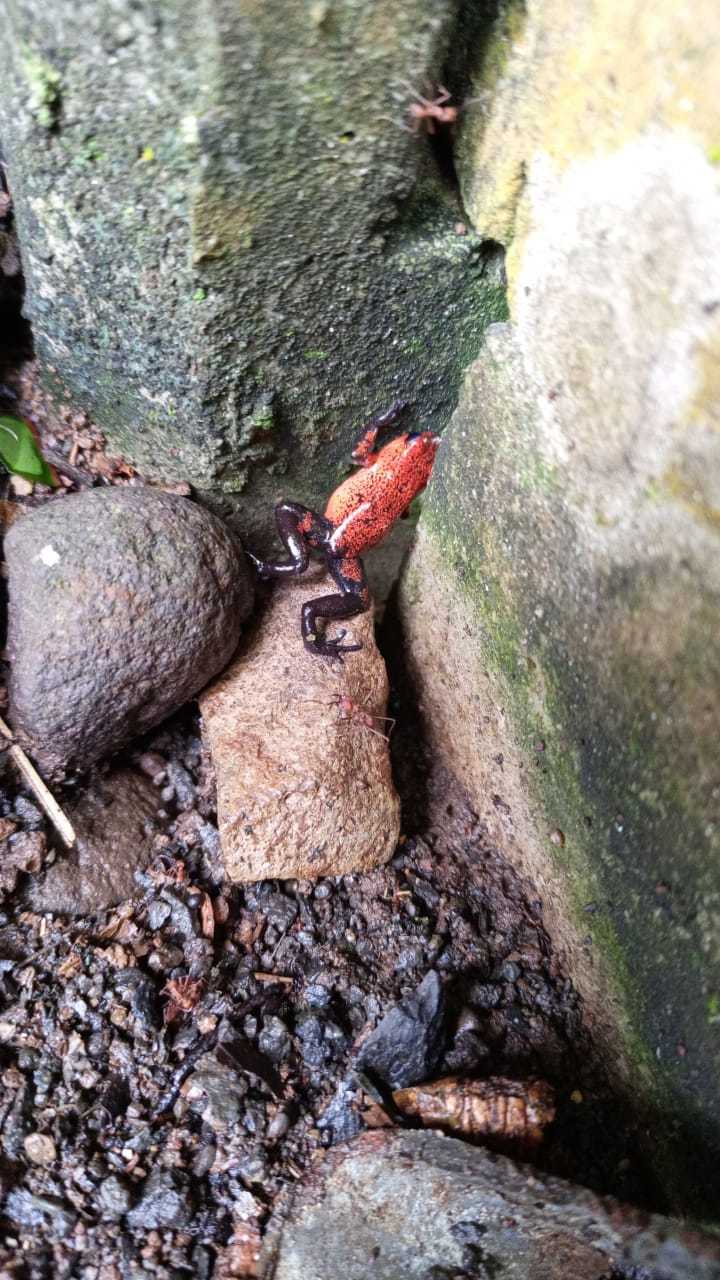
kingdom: Animalia
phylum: Chordata
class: Amphibia
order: Anura
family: Dendrobatidae
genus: Oophaga
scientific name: Oophaga pumilio
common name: Flaming poison frog
